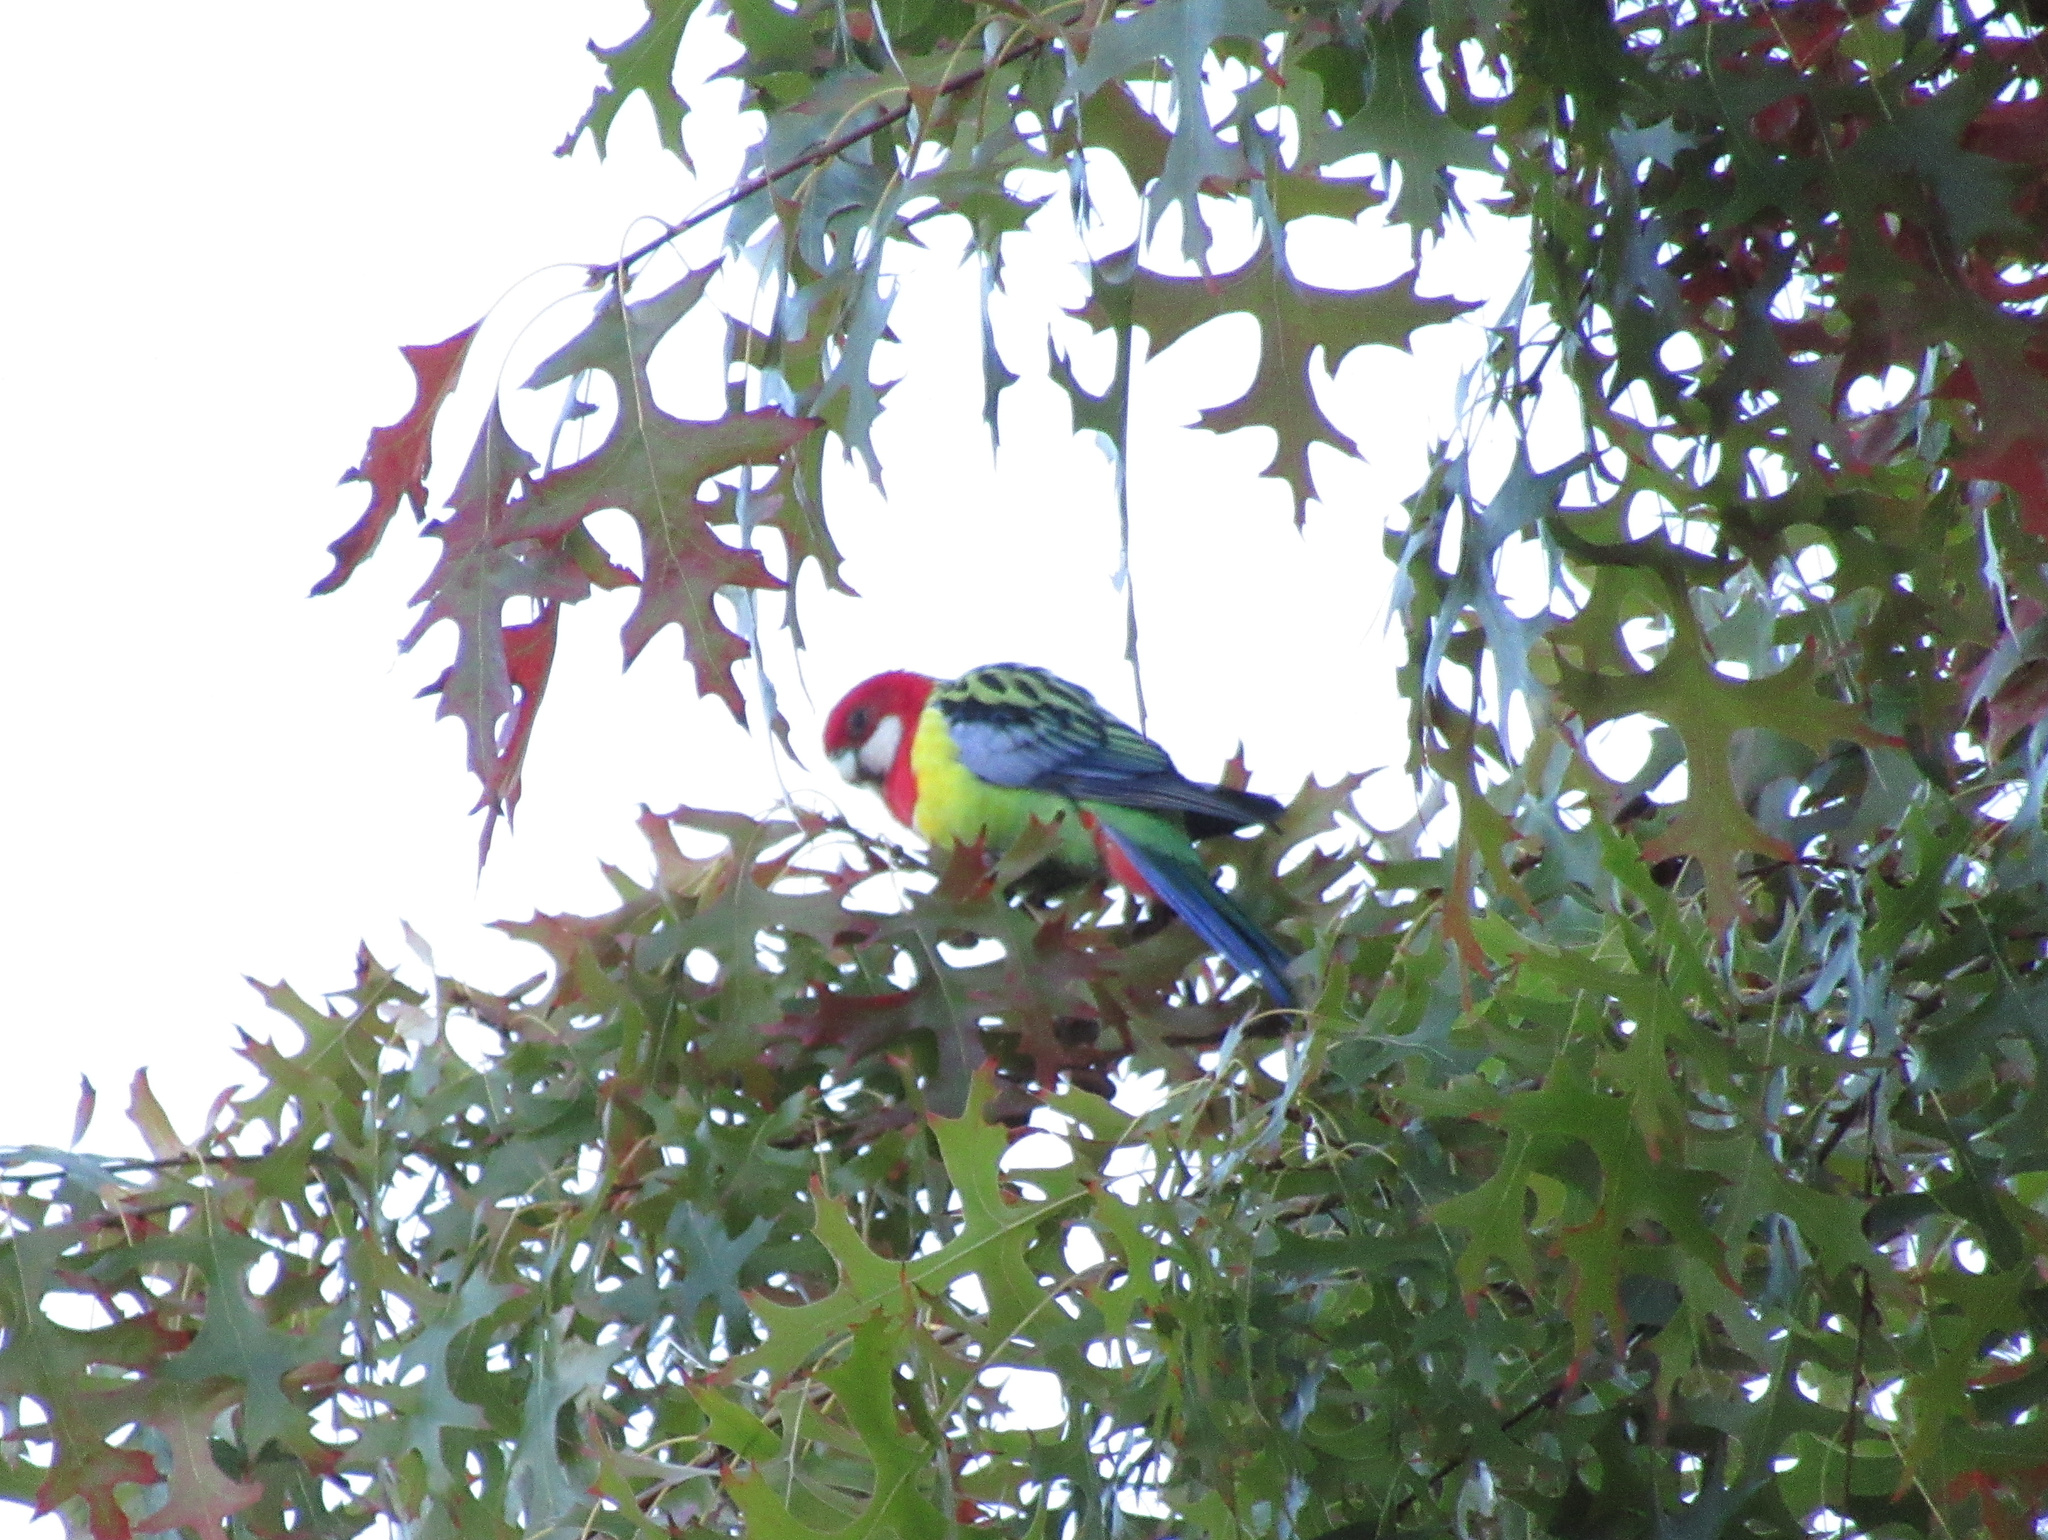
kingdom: Animalia
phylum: Chordata
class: Aves
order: Psittaciformes
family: Psittacidae
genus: Platycercus
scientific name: Platycercus eximius
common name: Eastern rosella
